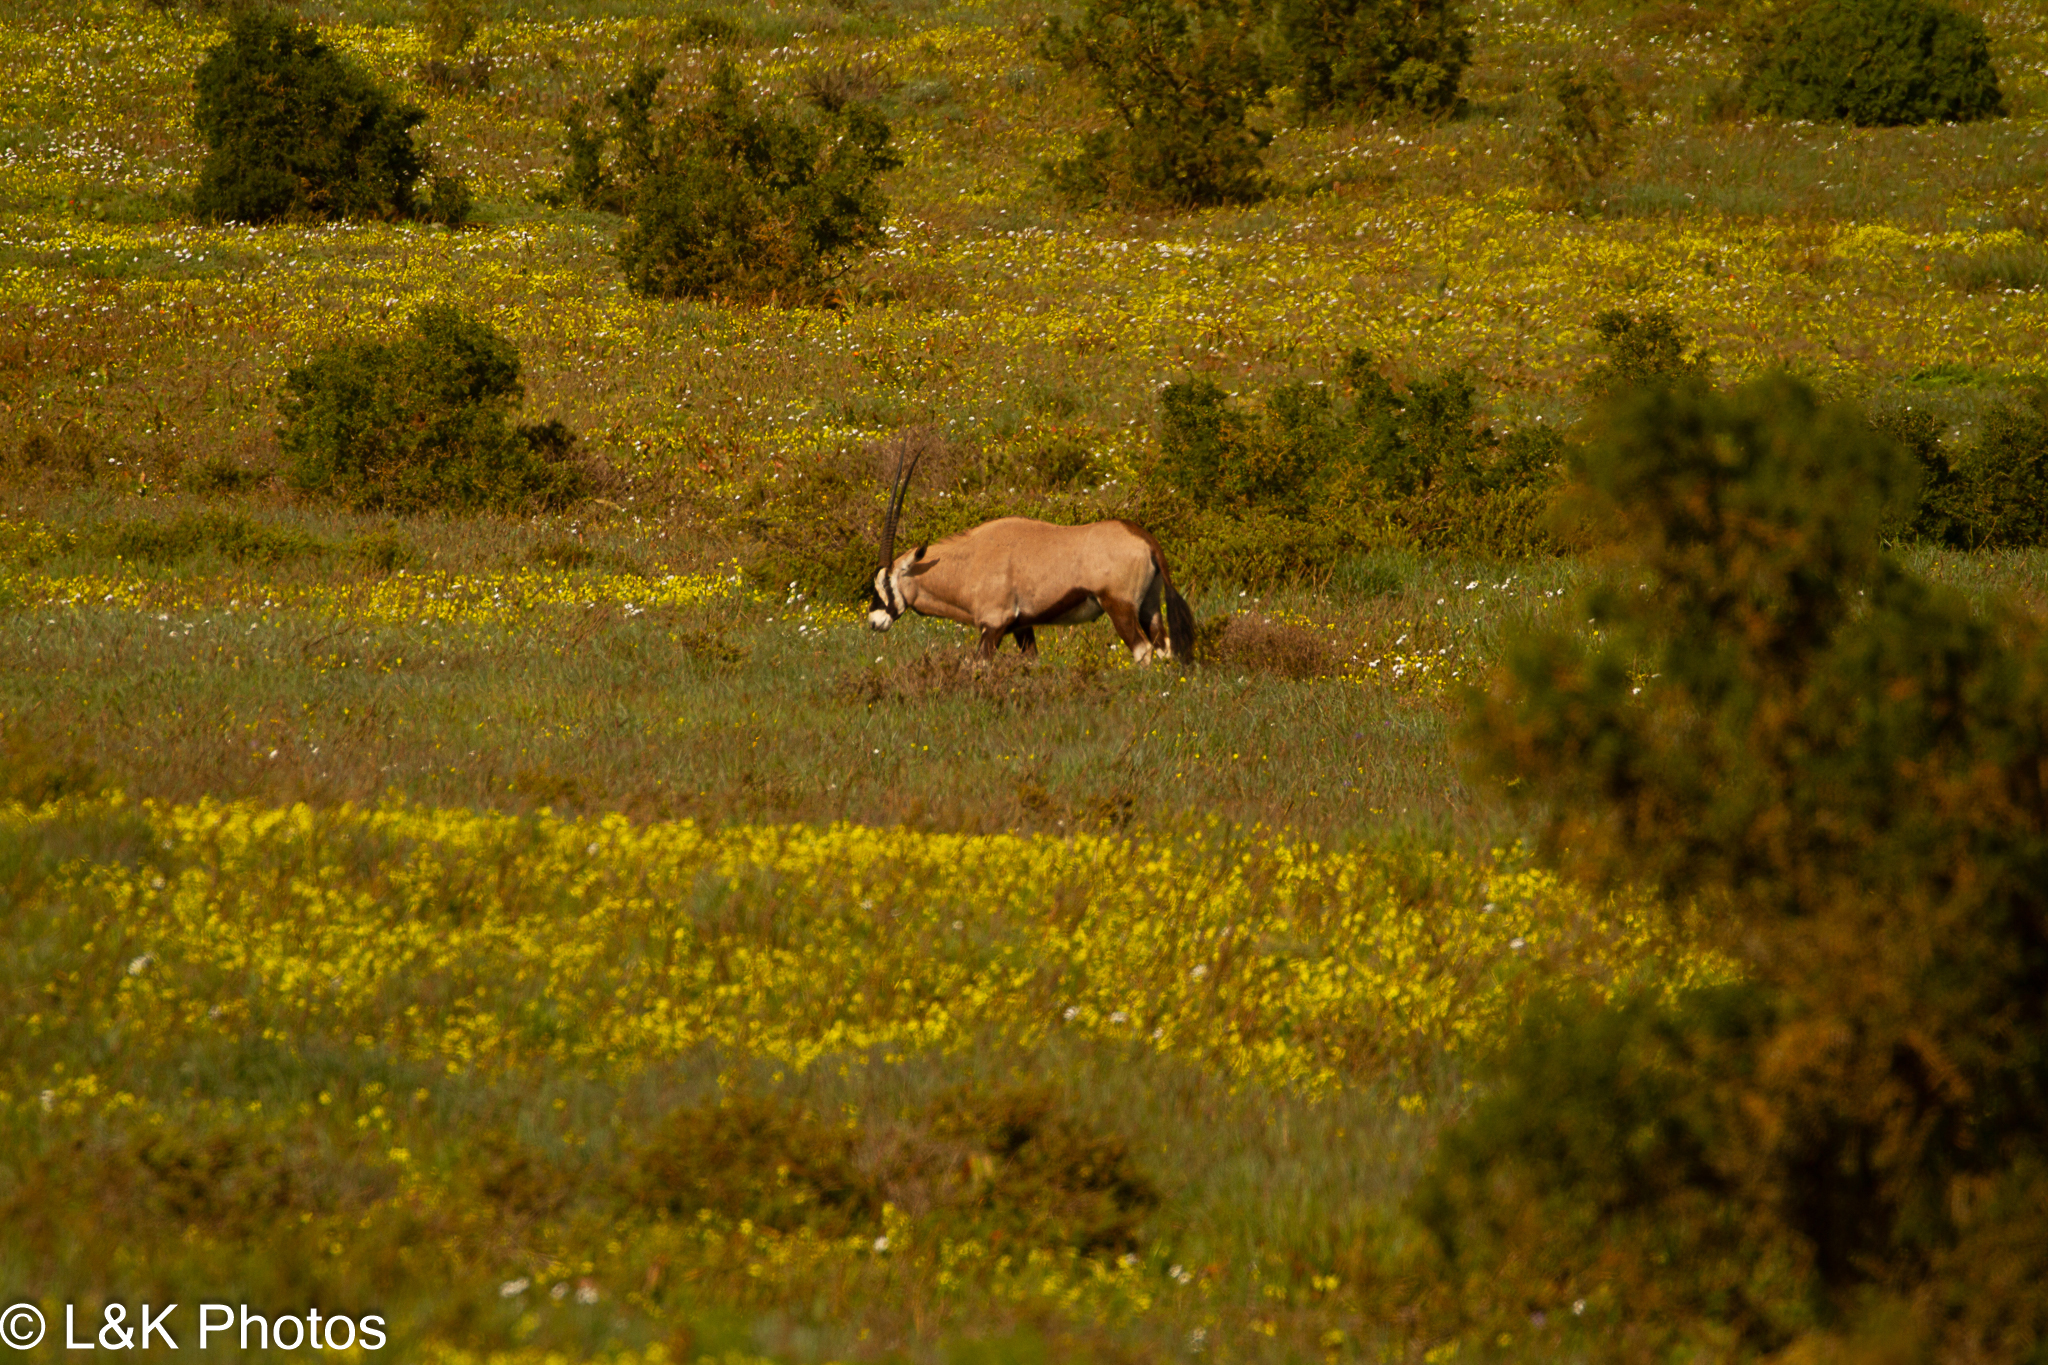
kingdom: Animalia
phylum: Chordata
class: Mammalia
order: Artiodactyla
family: Bovidae
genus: Oryx
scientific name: Oryx gazella
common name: Gemsbok
